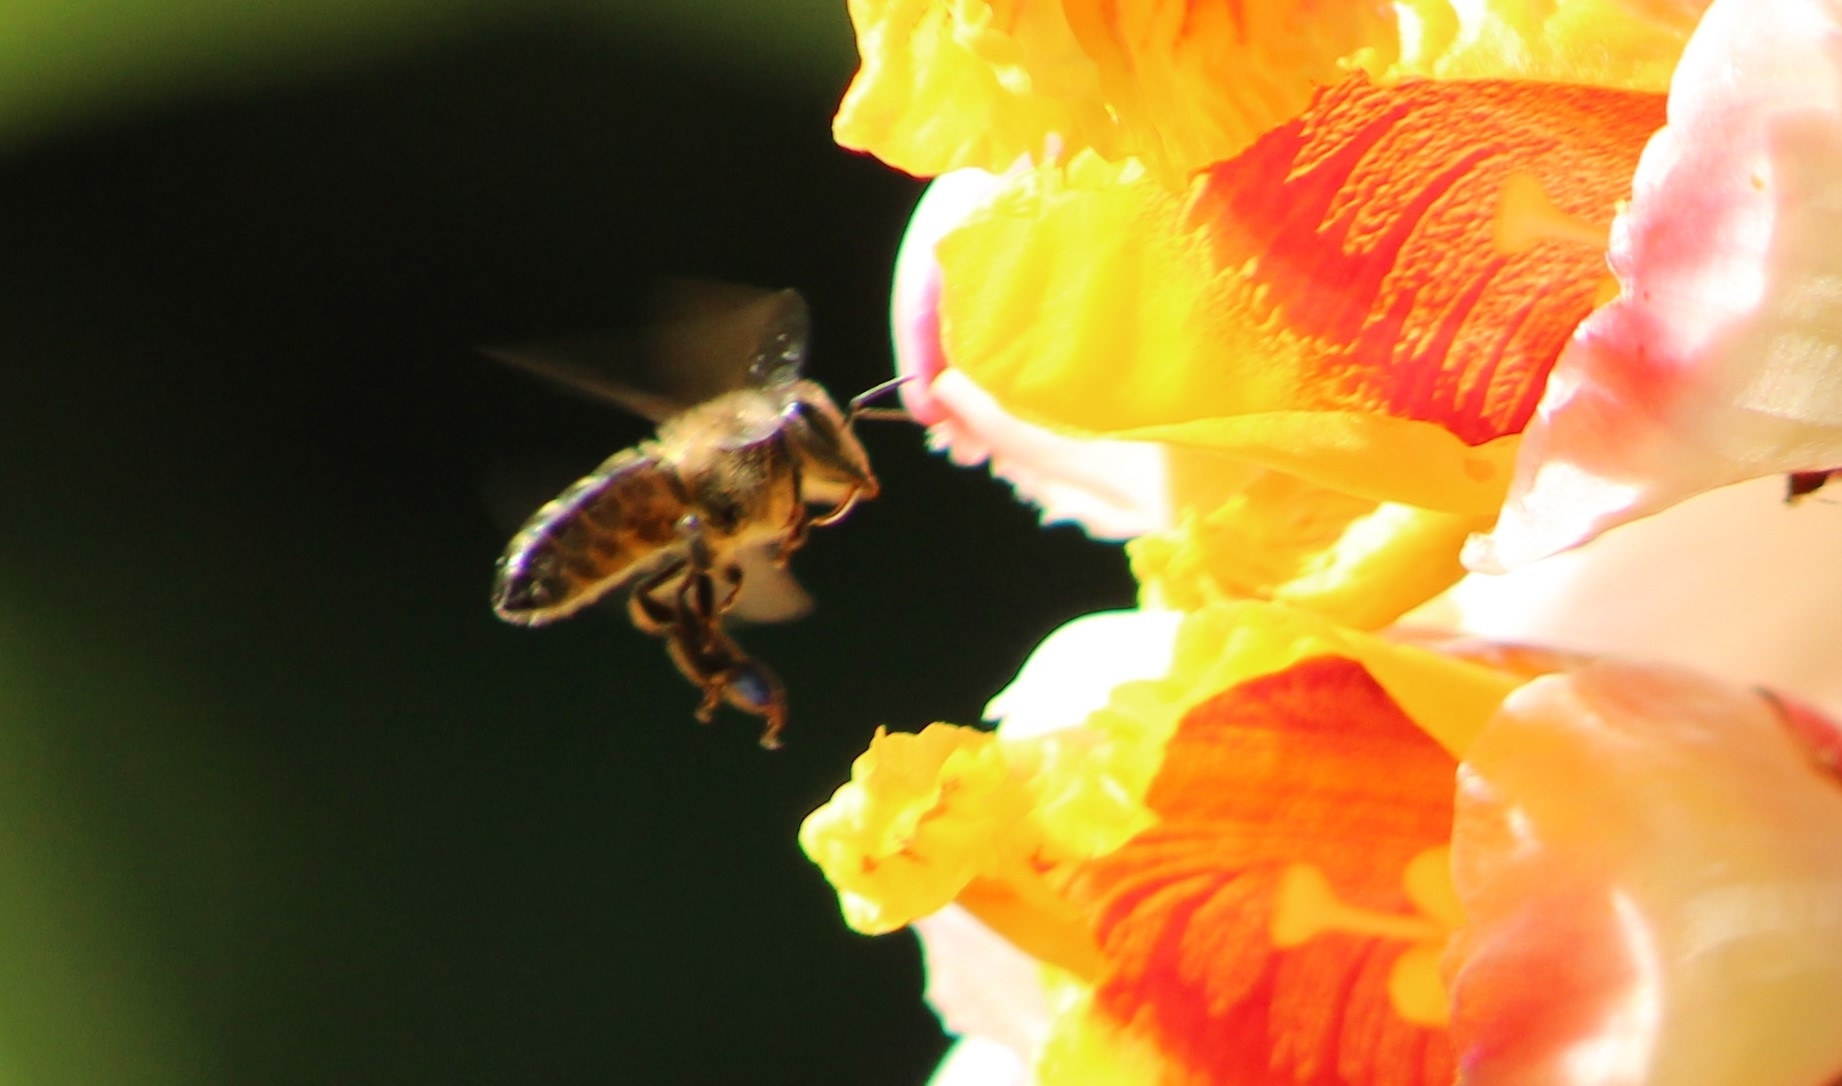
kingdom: Animalia
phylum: Arthropoda
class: Insecta
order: Hymenoptera
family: Apidae
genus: Apis
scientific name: Apis mellifera
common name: Honey bee
